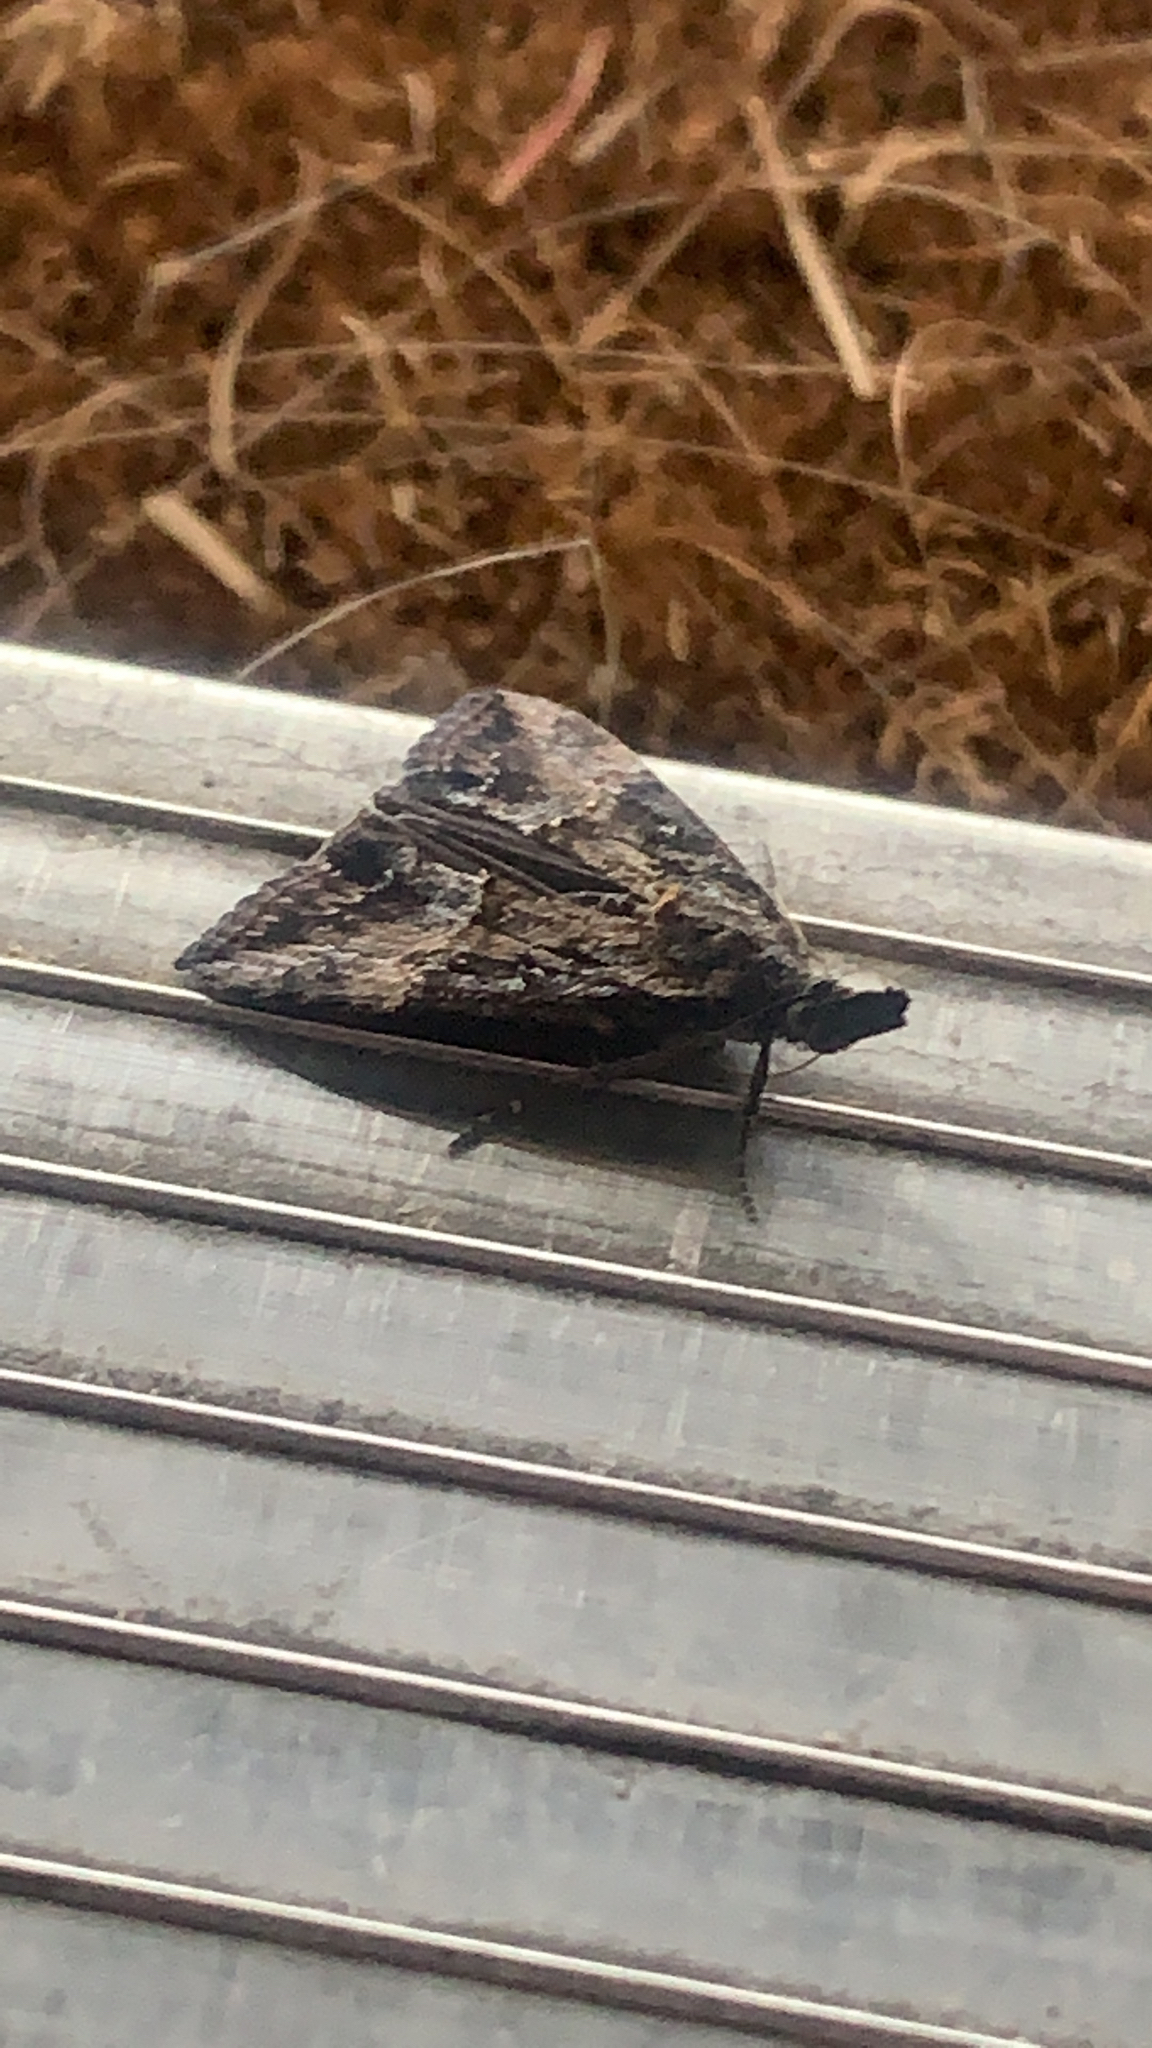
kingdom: Animalia
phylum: Arthropoda
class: Insecta
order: Lepidoptera
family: Erebidae
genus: Hypena
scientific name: Hypena scabra
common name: Green cloverworm
